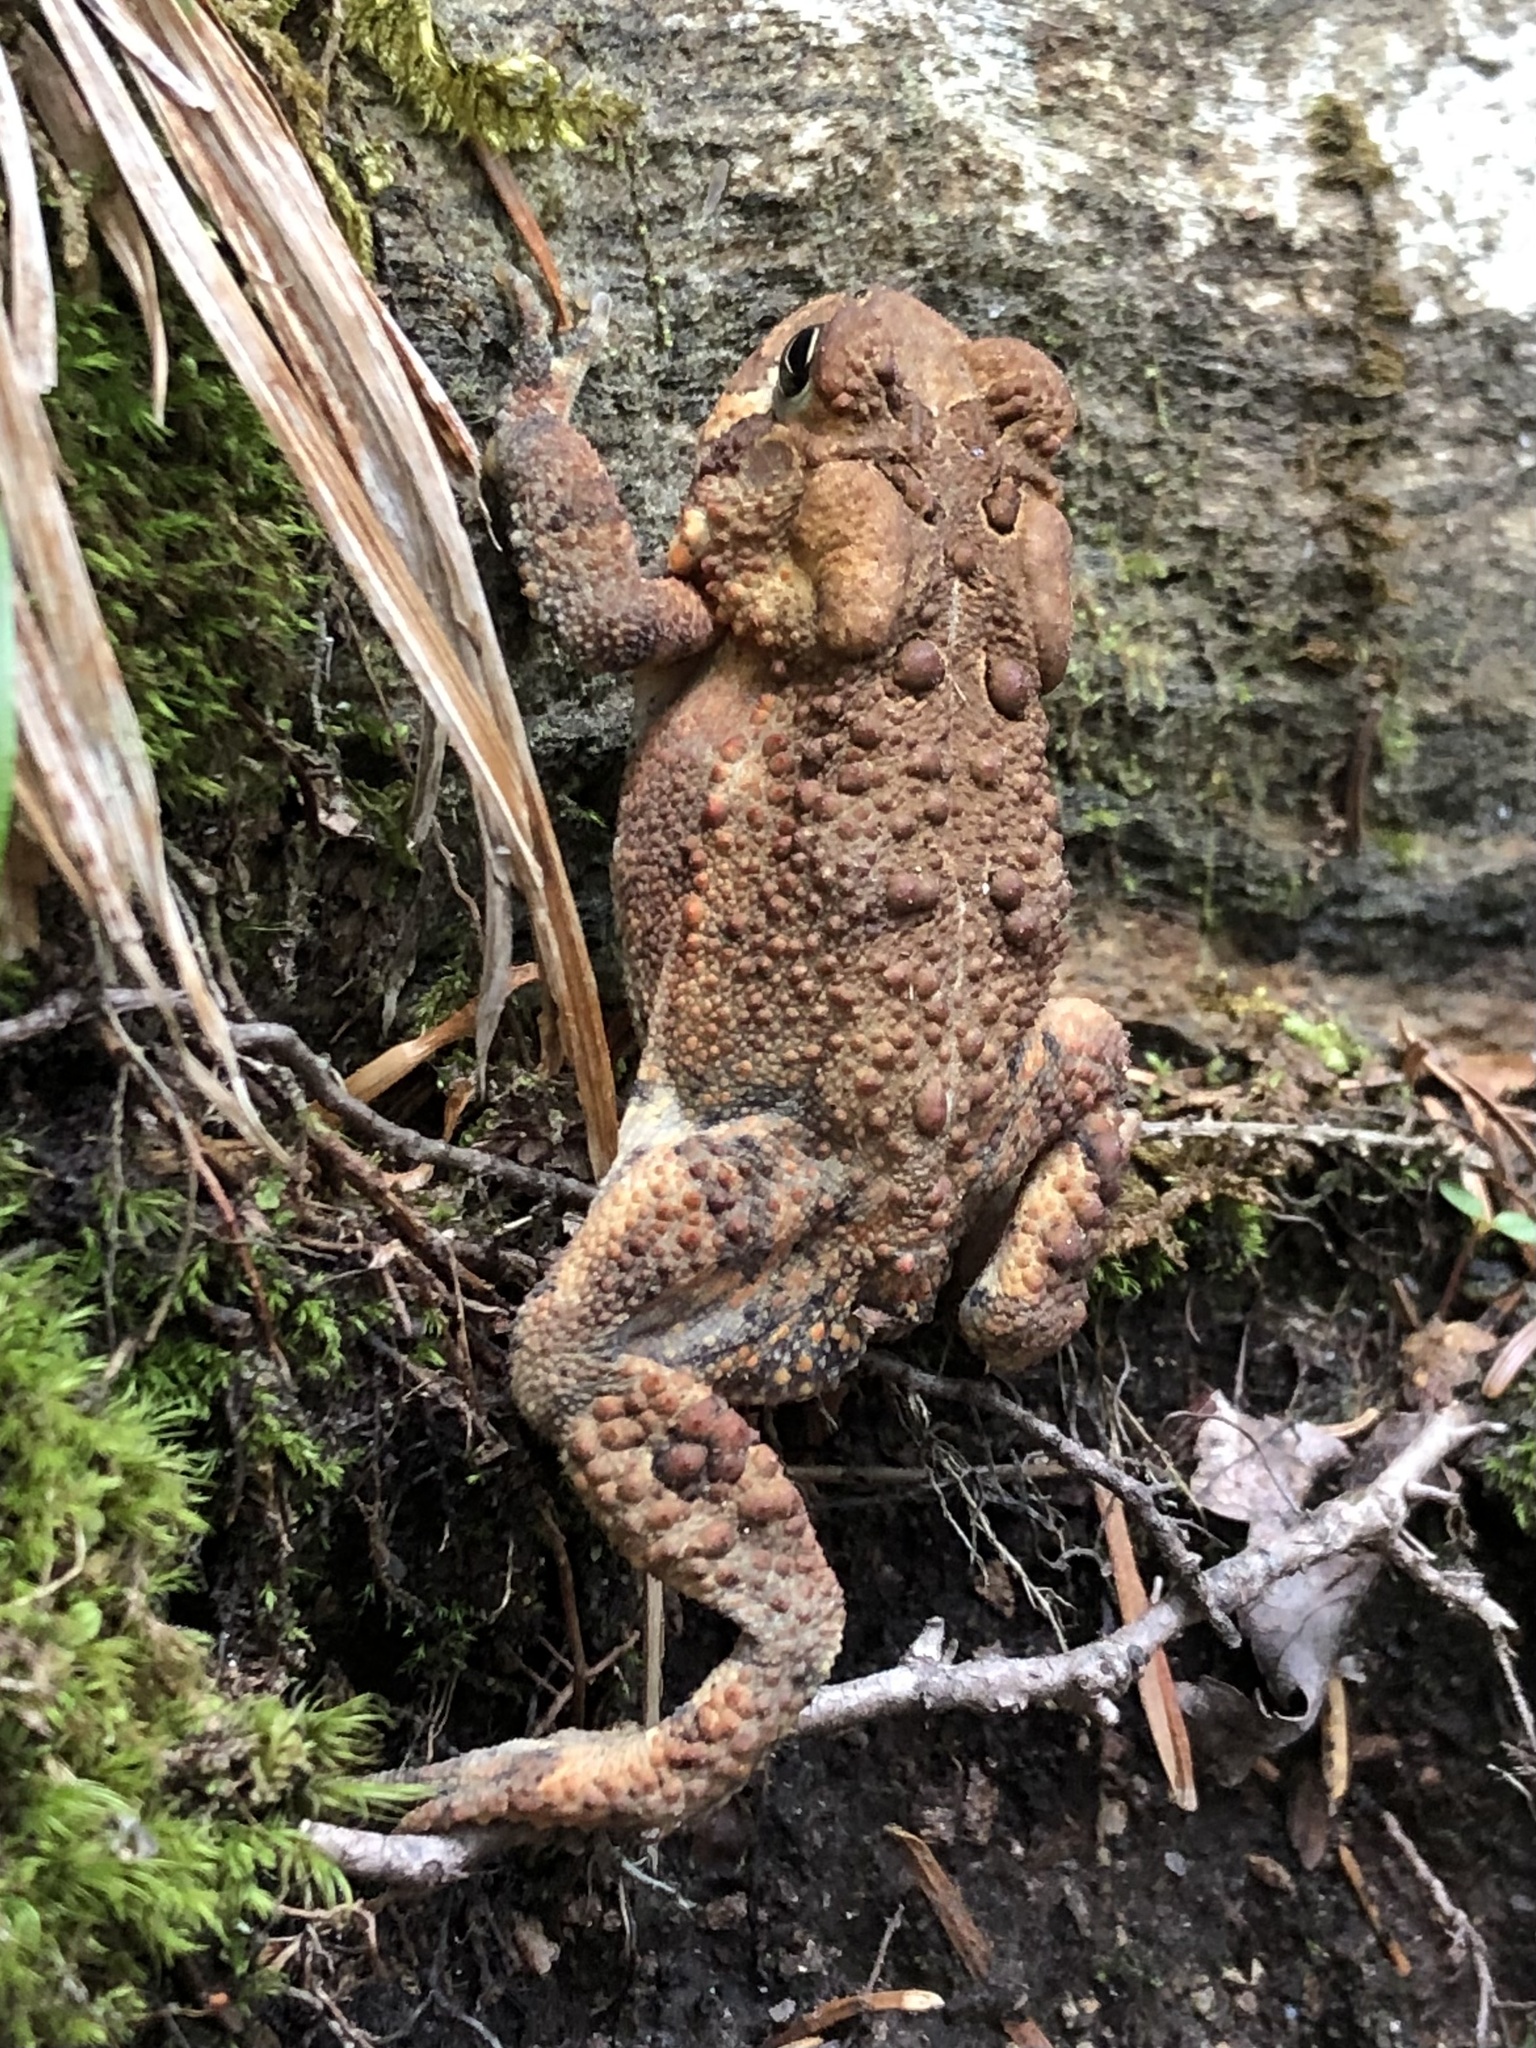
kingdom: Animalia
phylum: Chordata
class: Amphibia
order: Anura
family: Bufonidae
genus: Anaxyrus
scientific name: Anaxyrus americanus
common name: American toad
